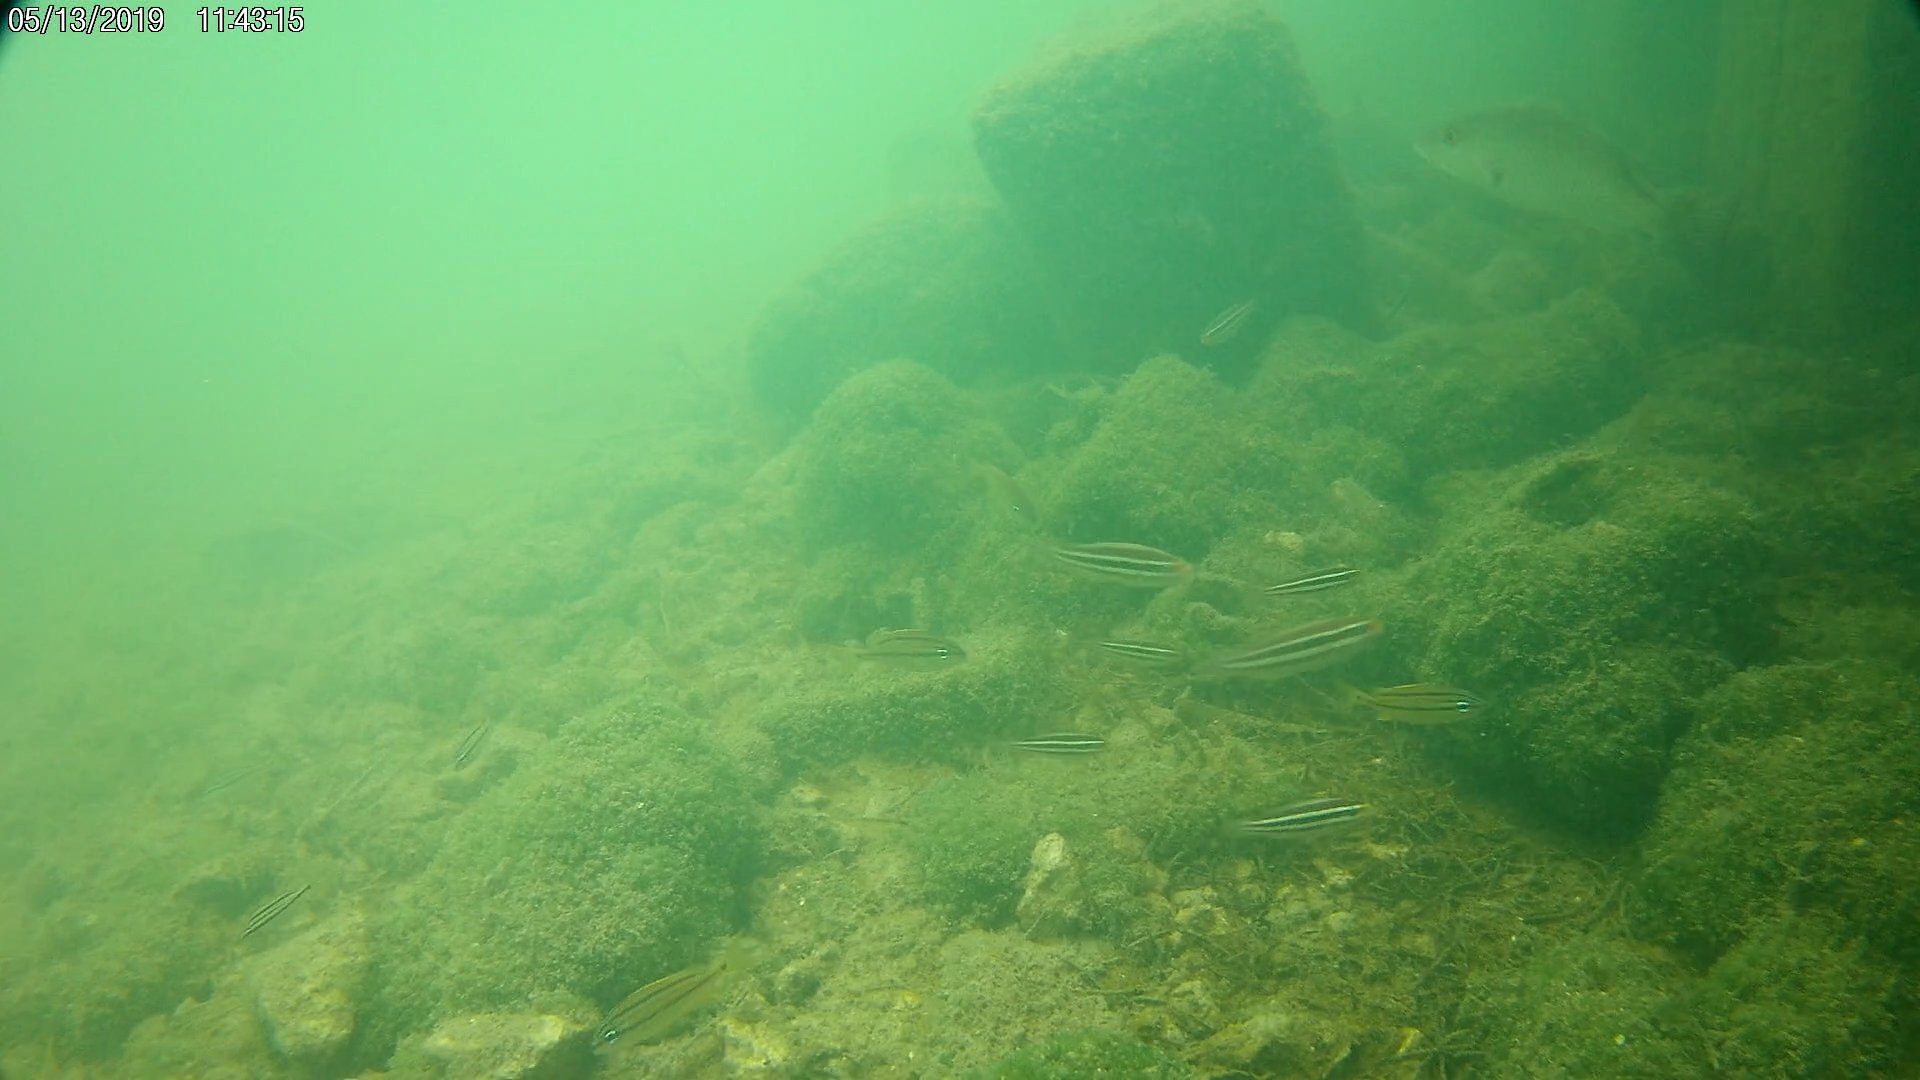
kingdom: Animalia
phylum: Chordata
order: Perciformes
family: Scaridae
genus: Scarus
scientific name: Scarus iseri
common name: Striped parrotfish
